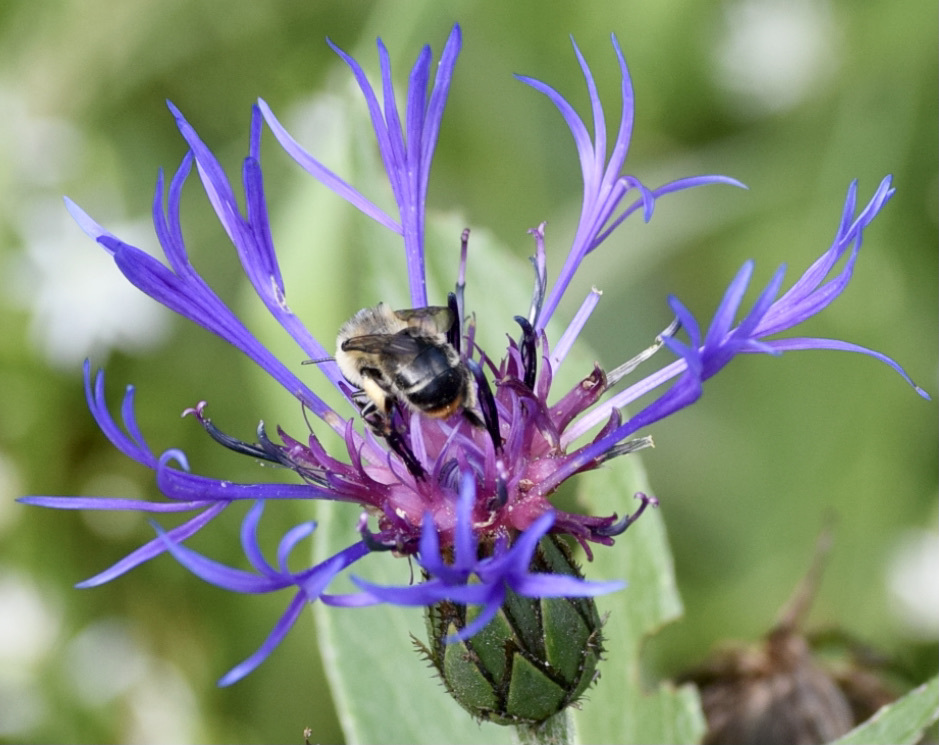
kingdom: Animalia
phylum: Arthropoda
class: Insecta
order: Hymenoptera
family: Apidae
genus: Anthophora
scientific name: Anthophora terminalis
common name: Orange-tipped wood-digger bee
